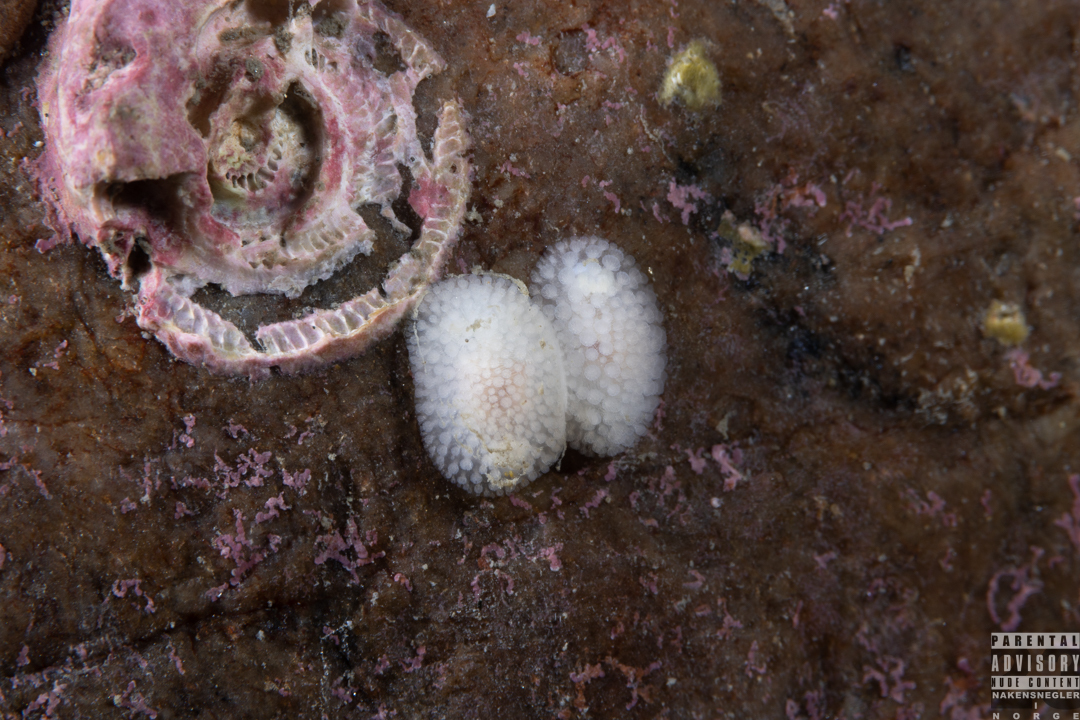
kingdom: Animalia
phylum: Mollusca
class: Gastropoda
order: Nudibranchia
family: Onchidorididae
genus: Onchidoris
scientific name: Onchidoris muricata
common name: Rough doris
